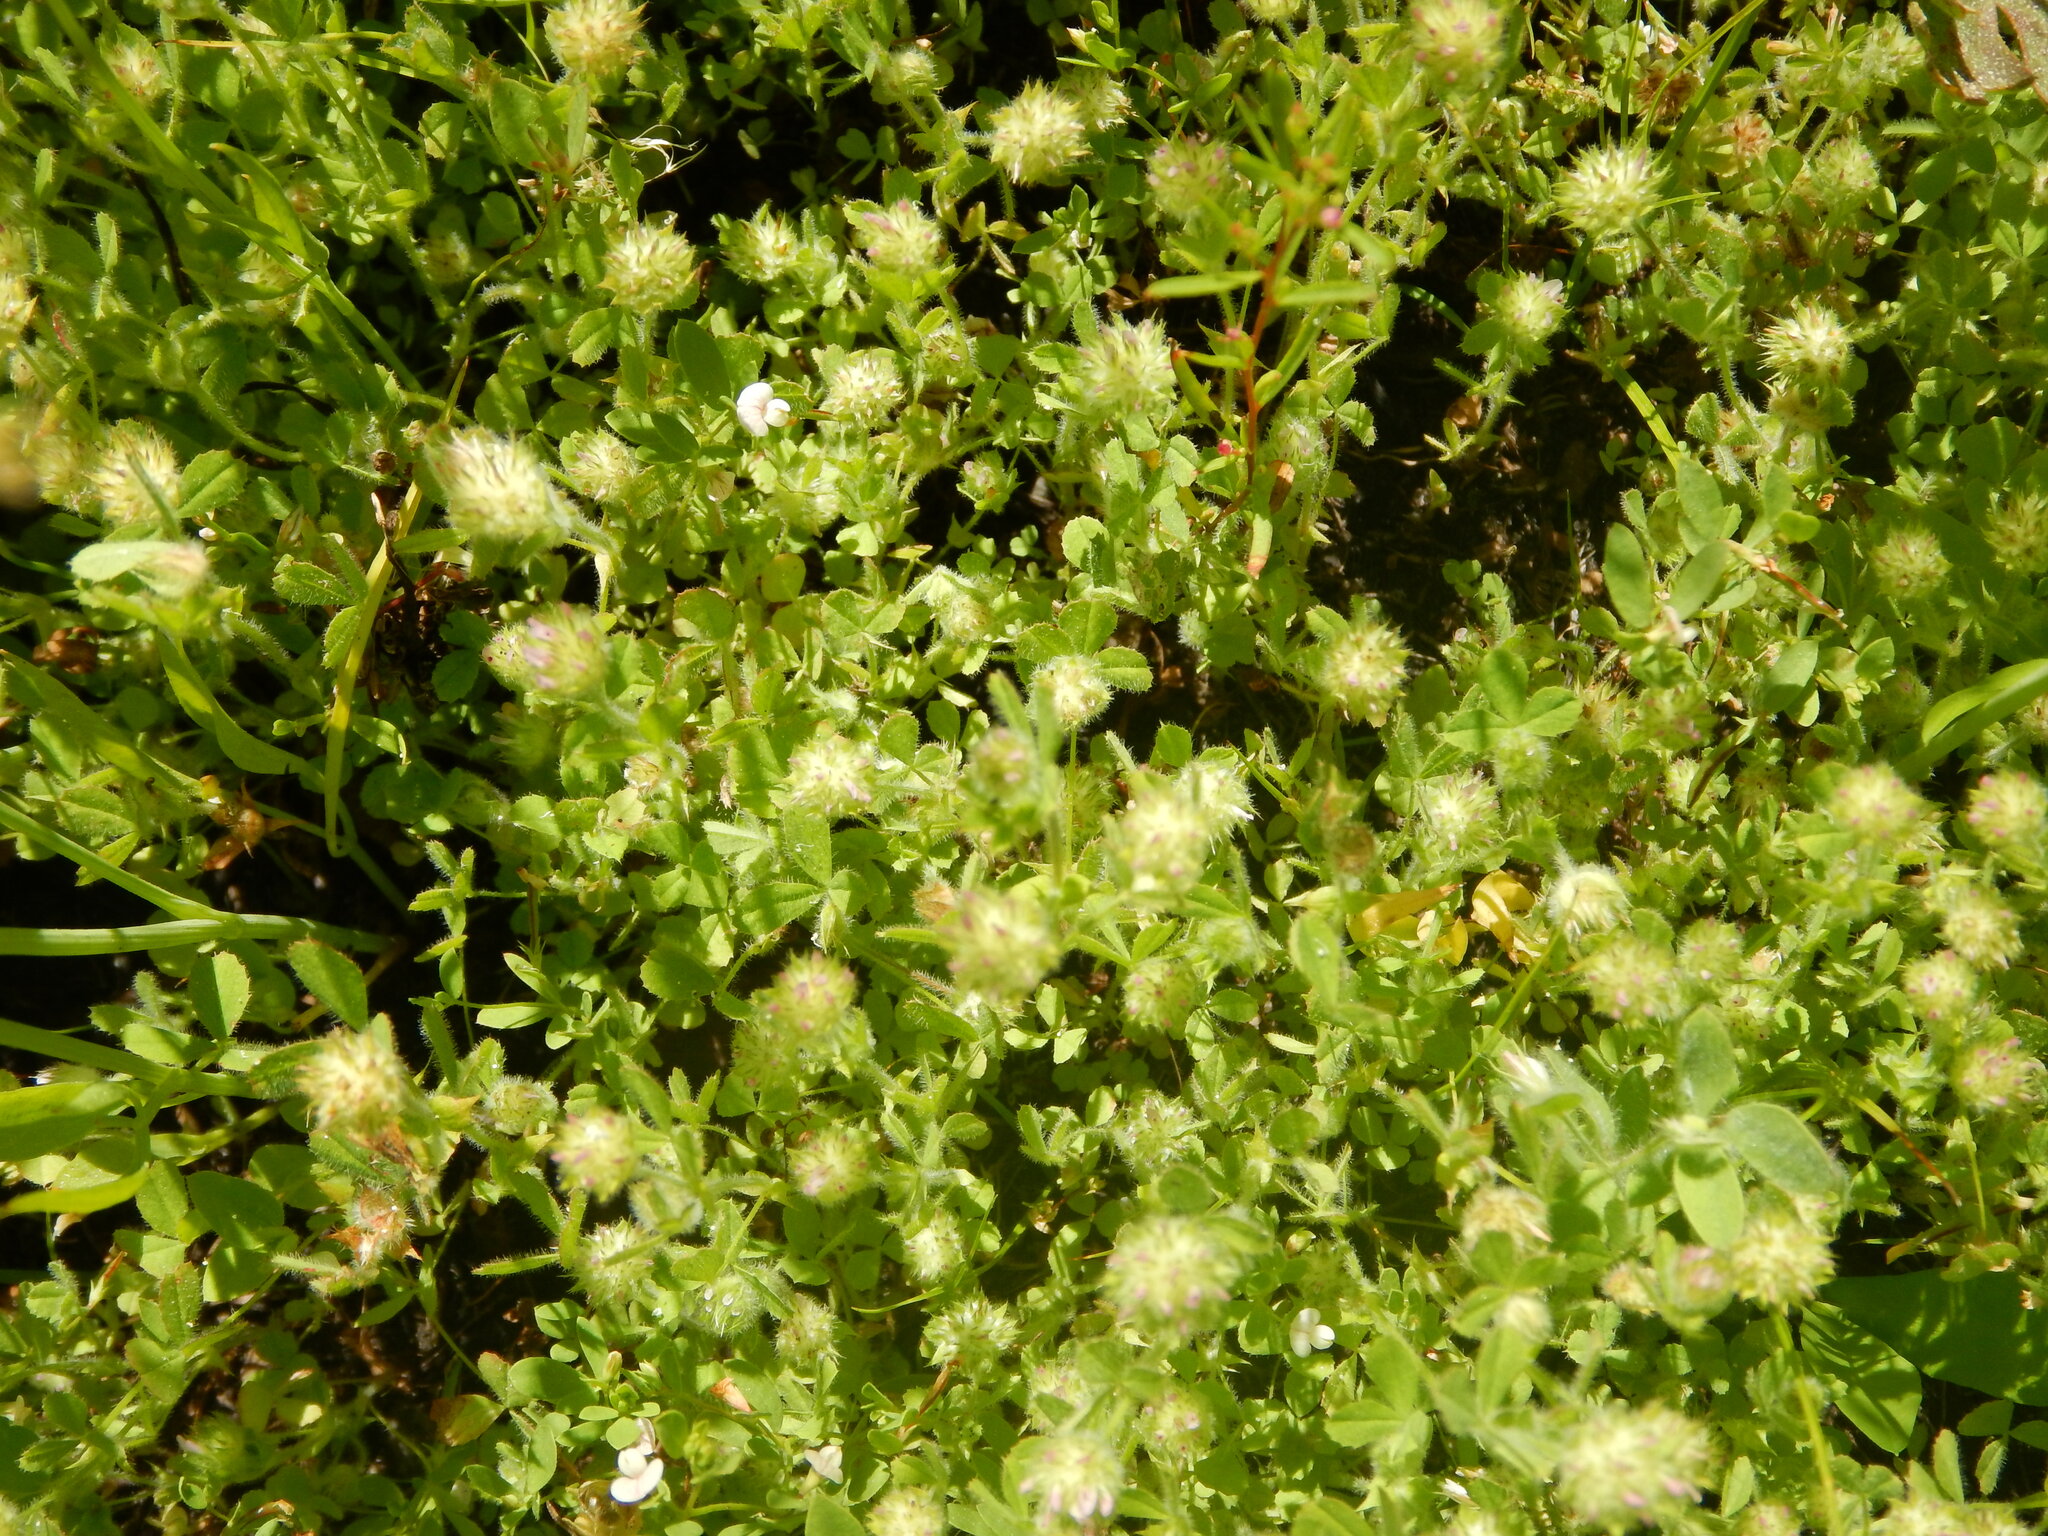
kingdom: Plantae
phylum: Tracheophyta
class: Magnoliopsida
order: Fabales
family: Fabaceae
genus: Trifolium
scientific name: Trifolium microcephalum
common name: Maiden clover
